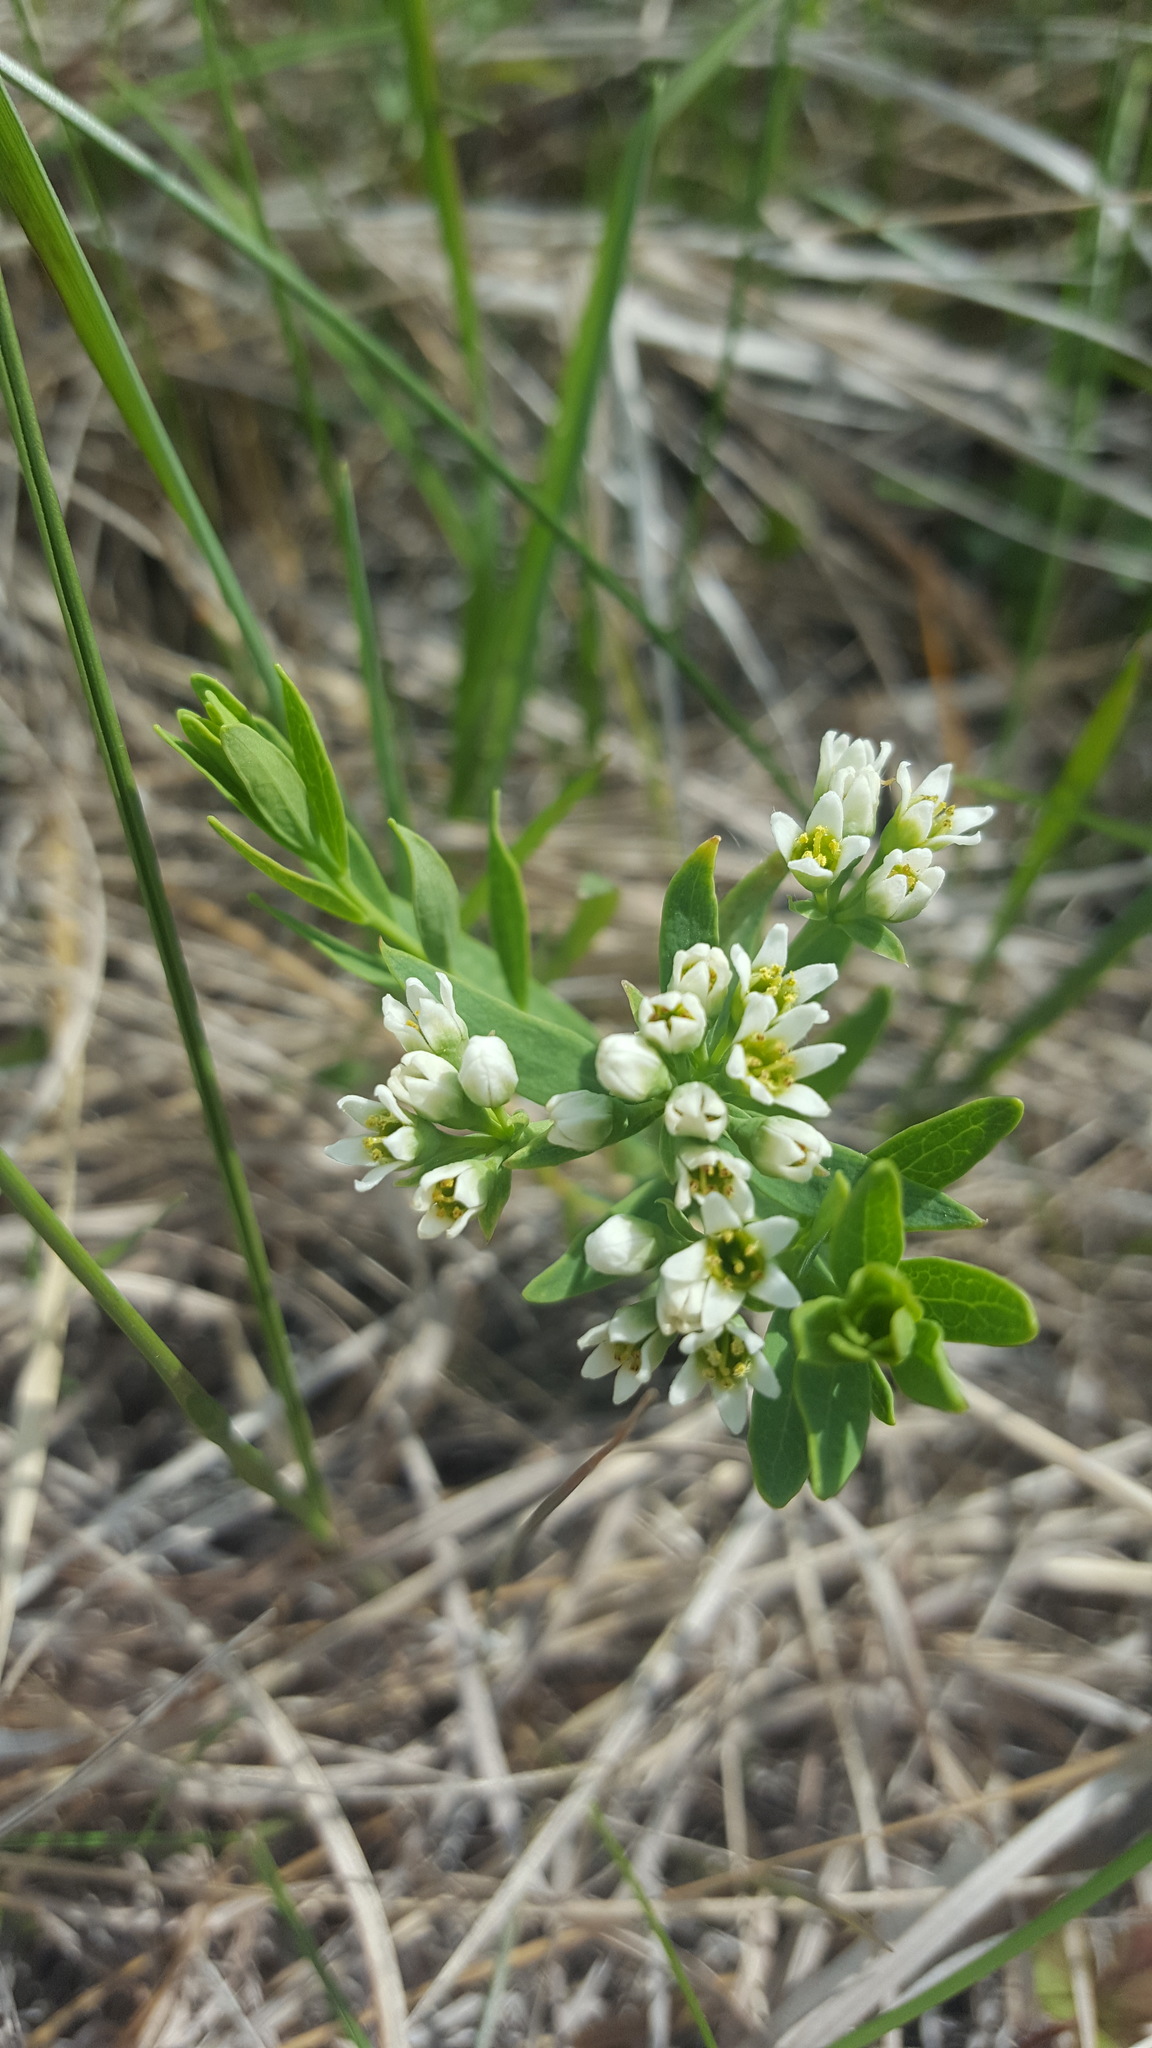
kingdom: Plantae
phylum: Tracheophyta
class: Magnoliopsida
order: Santalales
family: Comandraceae
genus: Comandra
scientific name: Comandra umbellata
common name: Bastard toadflax
